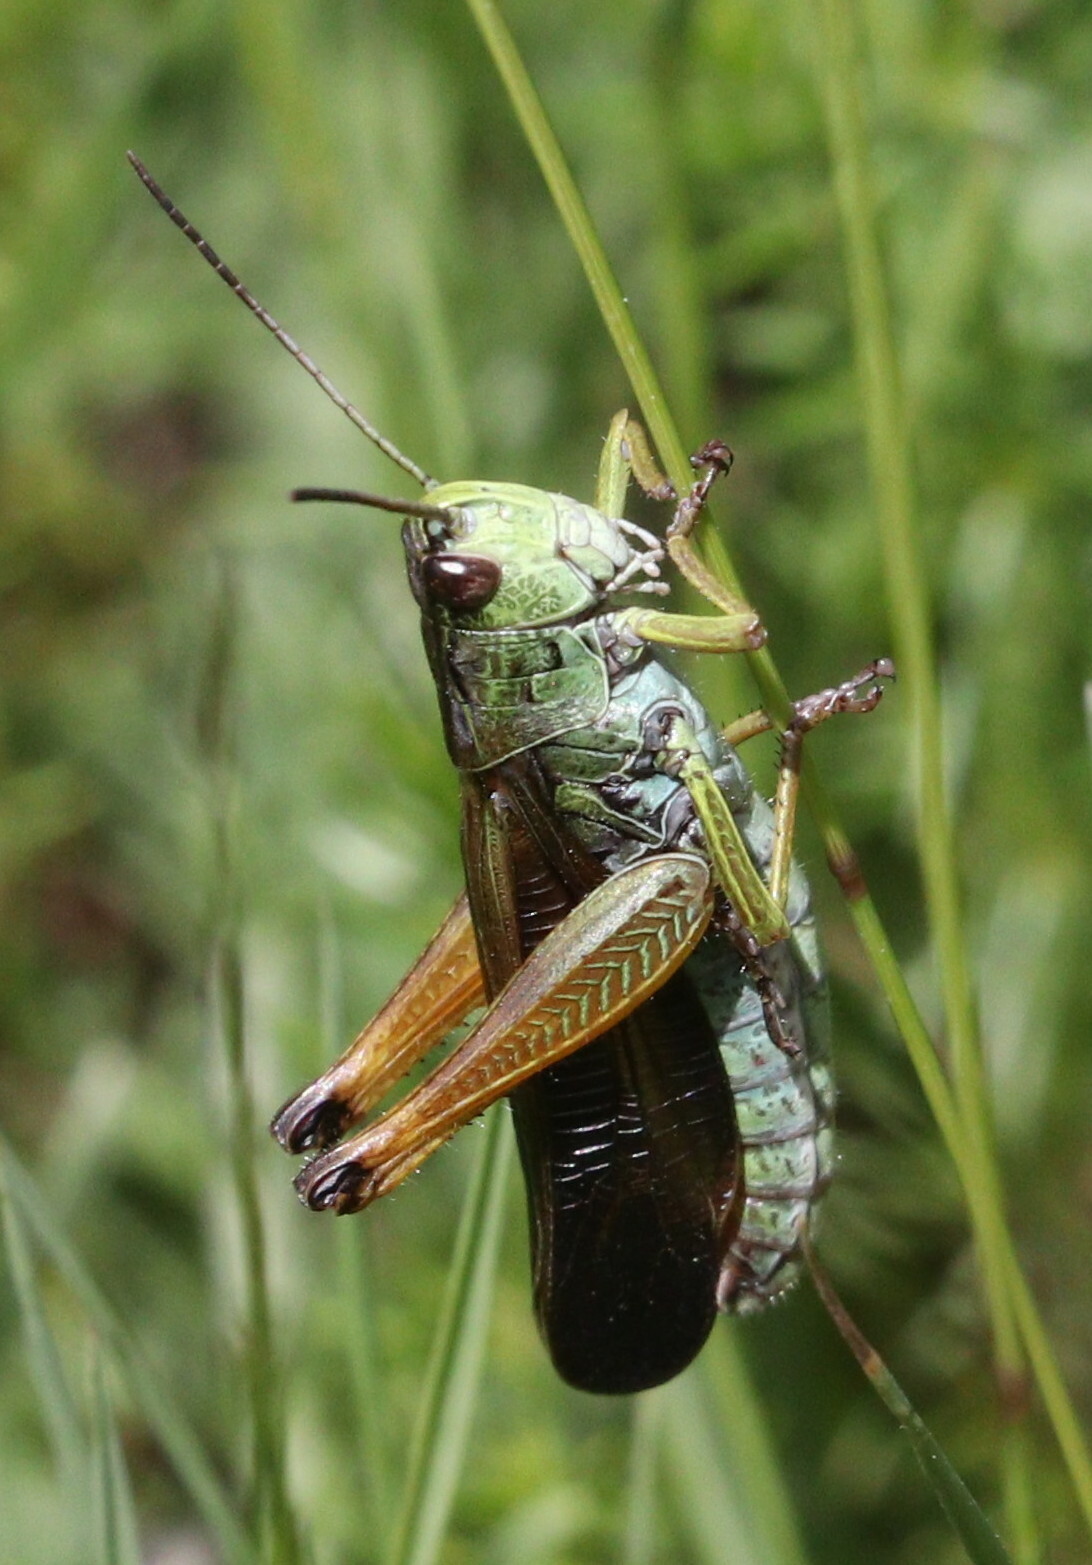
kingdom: Animalia
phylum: Arthropoda
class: Insecta
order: Orthoptera
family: Acrididae
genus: Stauroderus
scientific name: Stauroderus scalaris
